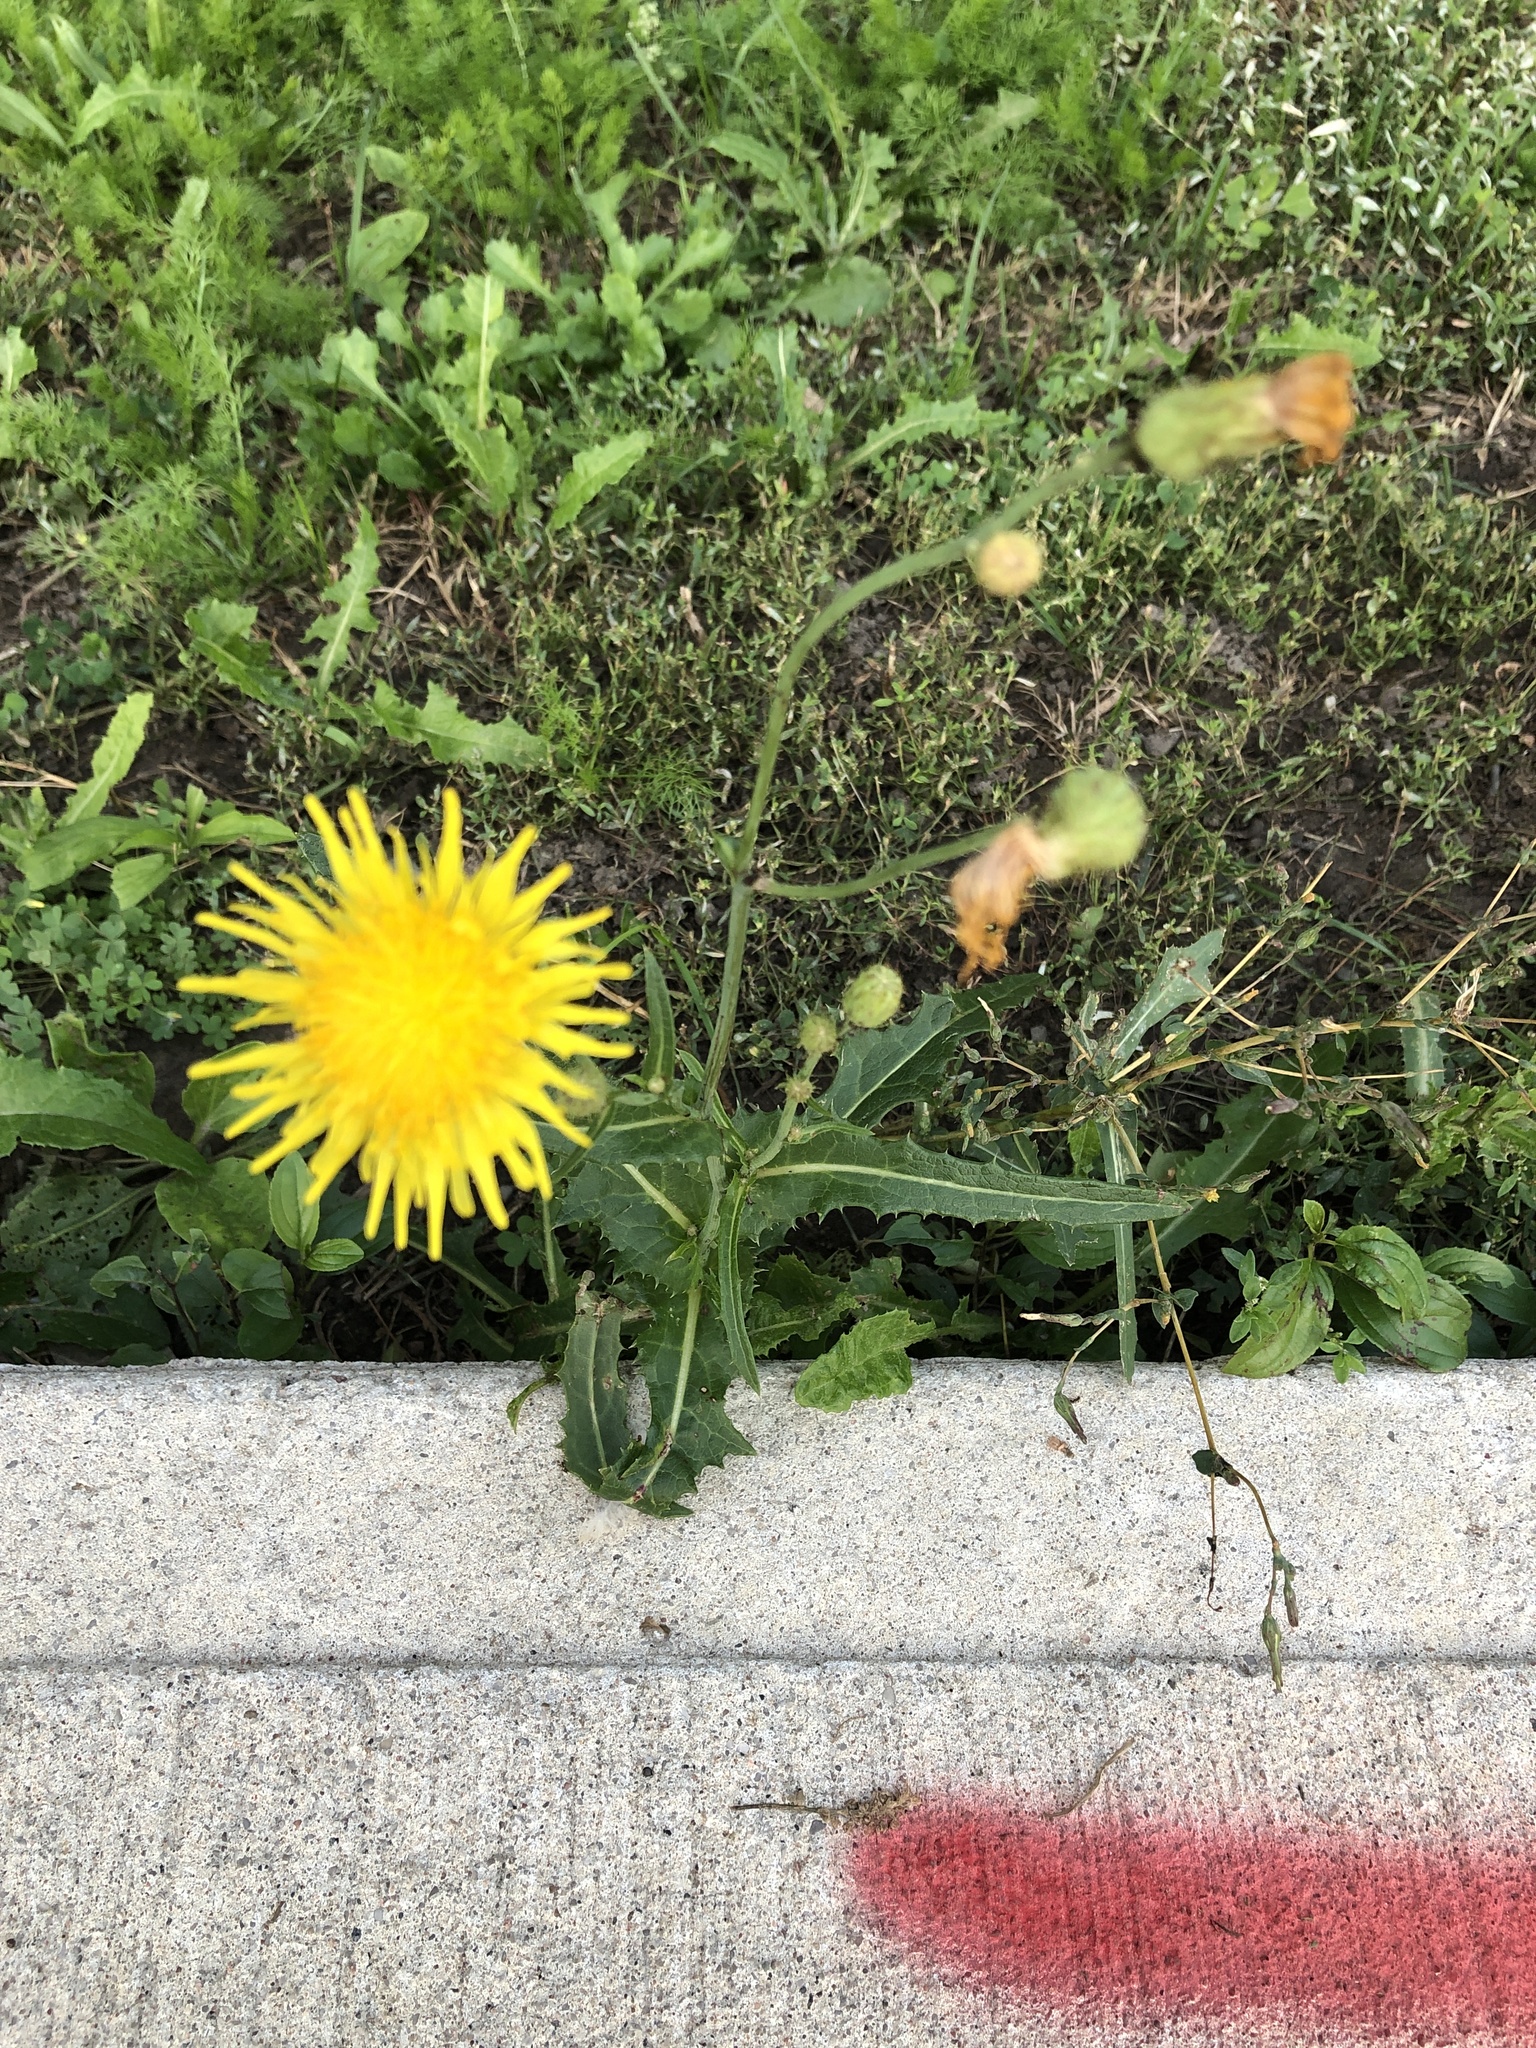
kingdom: Plantae
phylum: Tracheophyta
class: Magnoliopsida
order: Asterales
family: Asteraceae
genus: Sonchus
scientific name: Sonchus arvensis
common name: Perennial sow-thistle
